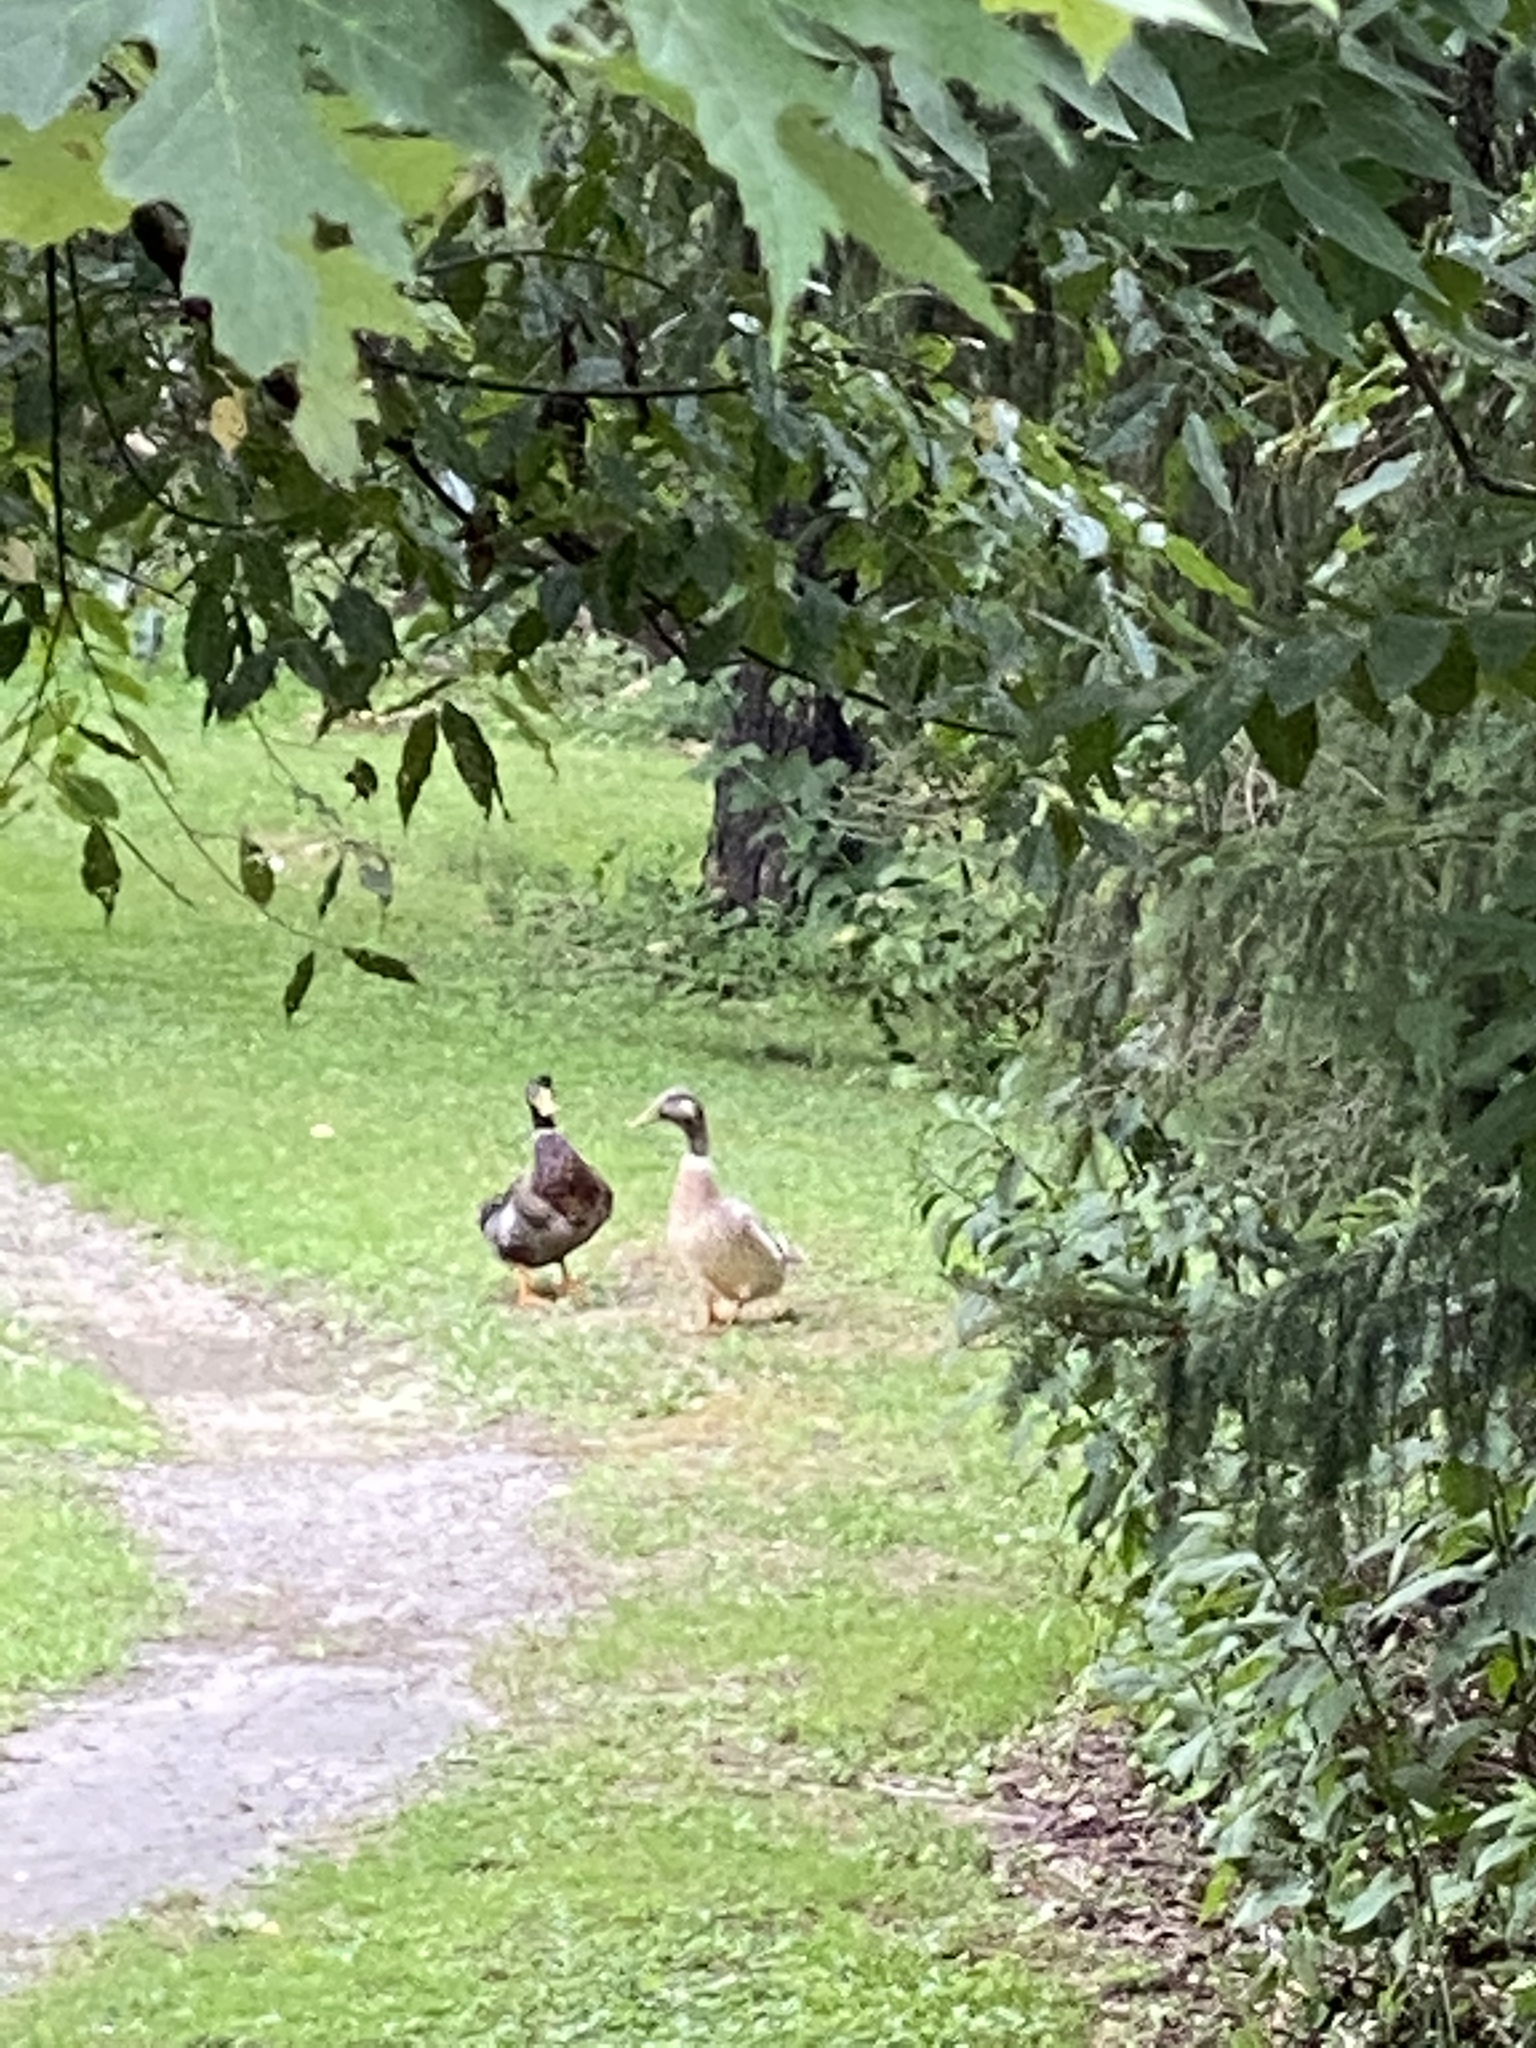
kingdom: Animalia
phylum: Chordata
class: Aves
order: Anseriformes
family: Anatidae
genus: Anas
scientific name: Anas platyrhynchos
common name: Mallard
